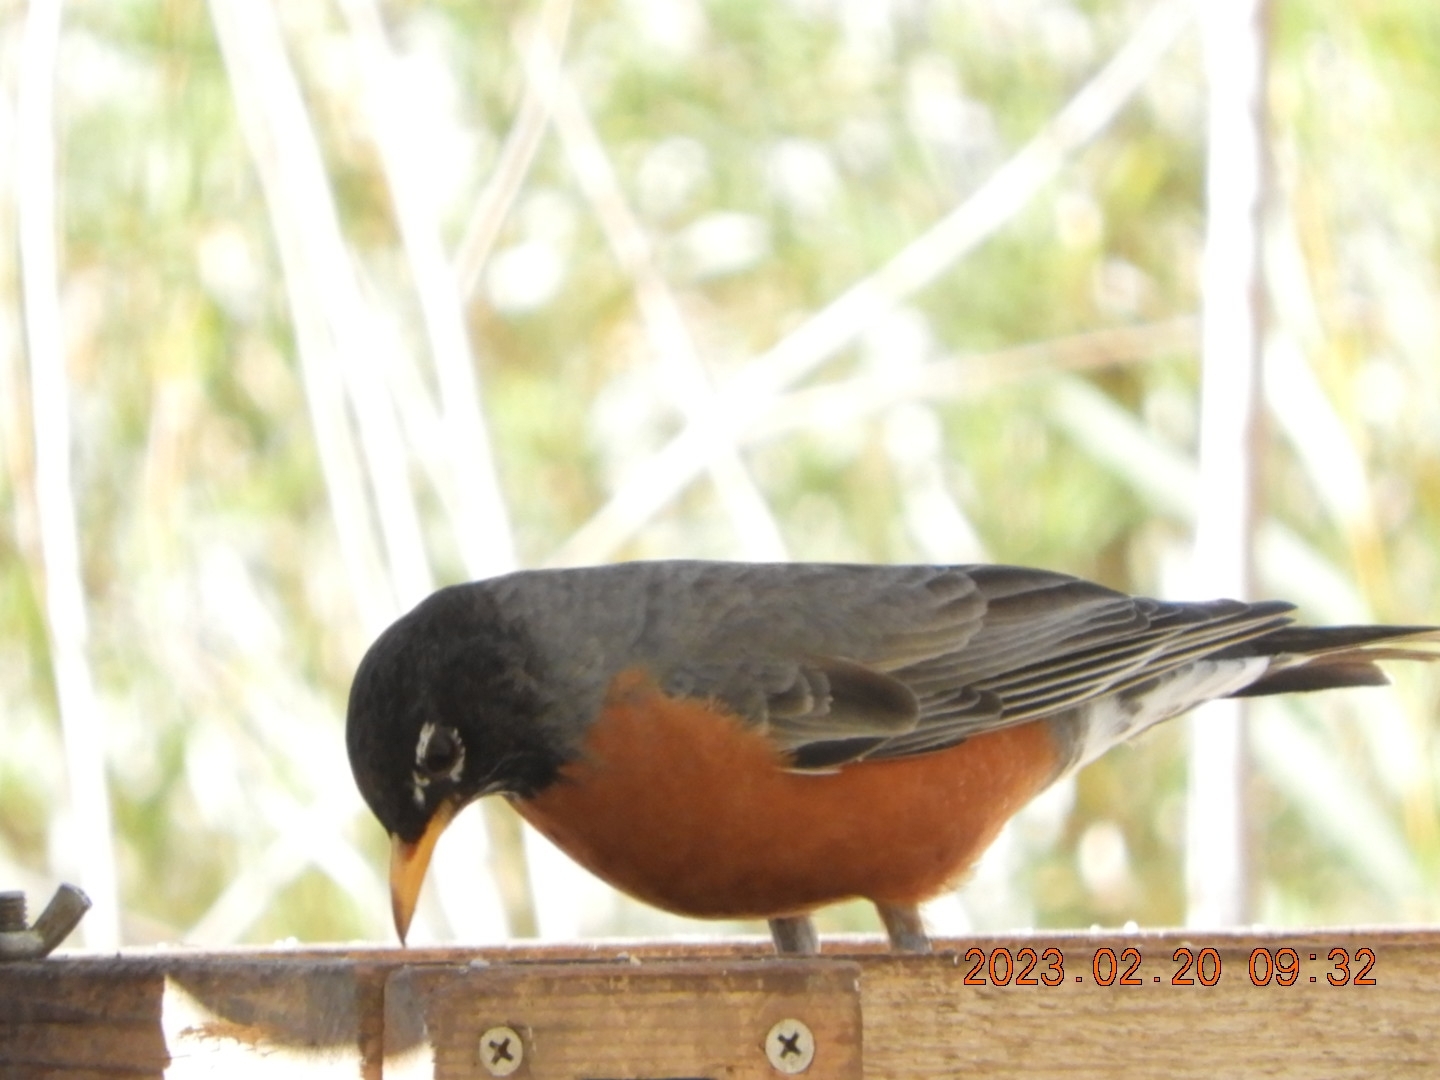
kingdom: Animalia
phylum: Chordata
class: Aves
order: Passeriformes
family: Turdidae
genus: Turdus
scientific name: Turdus migratorius
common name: American robin
